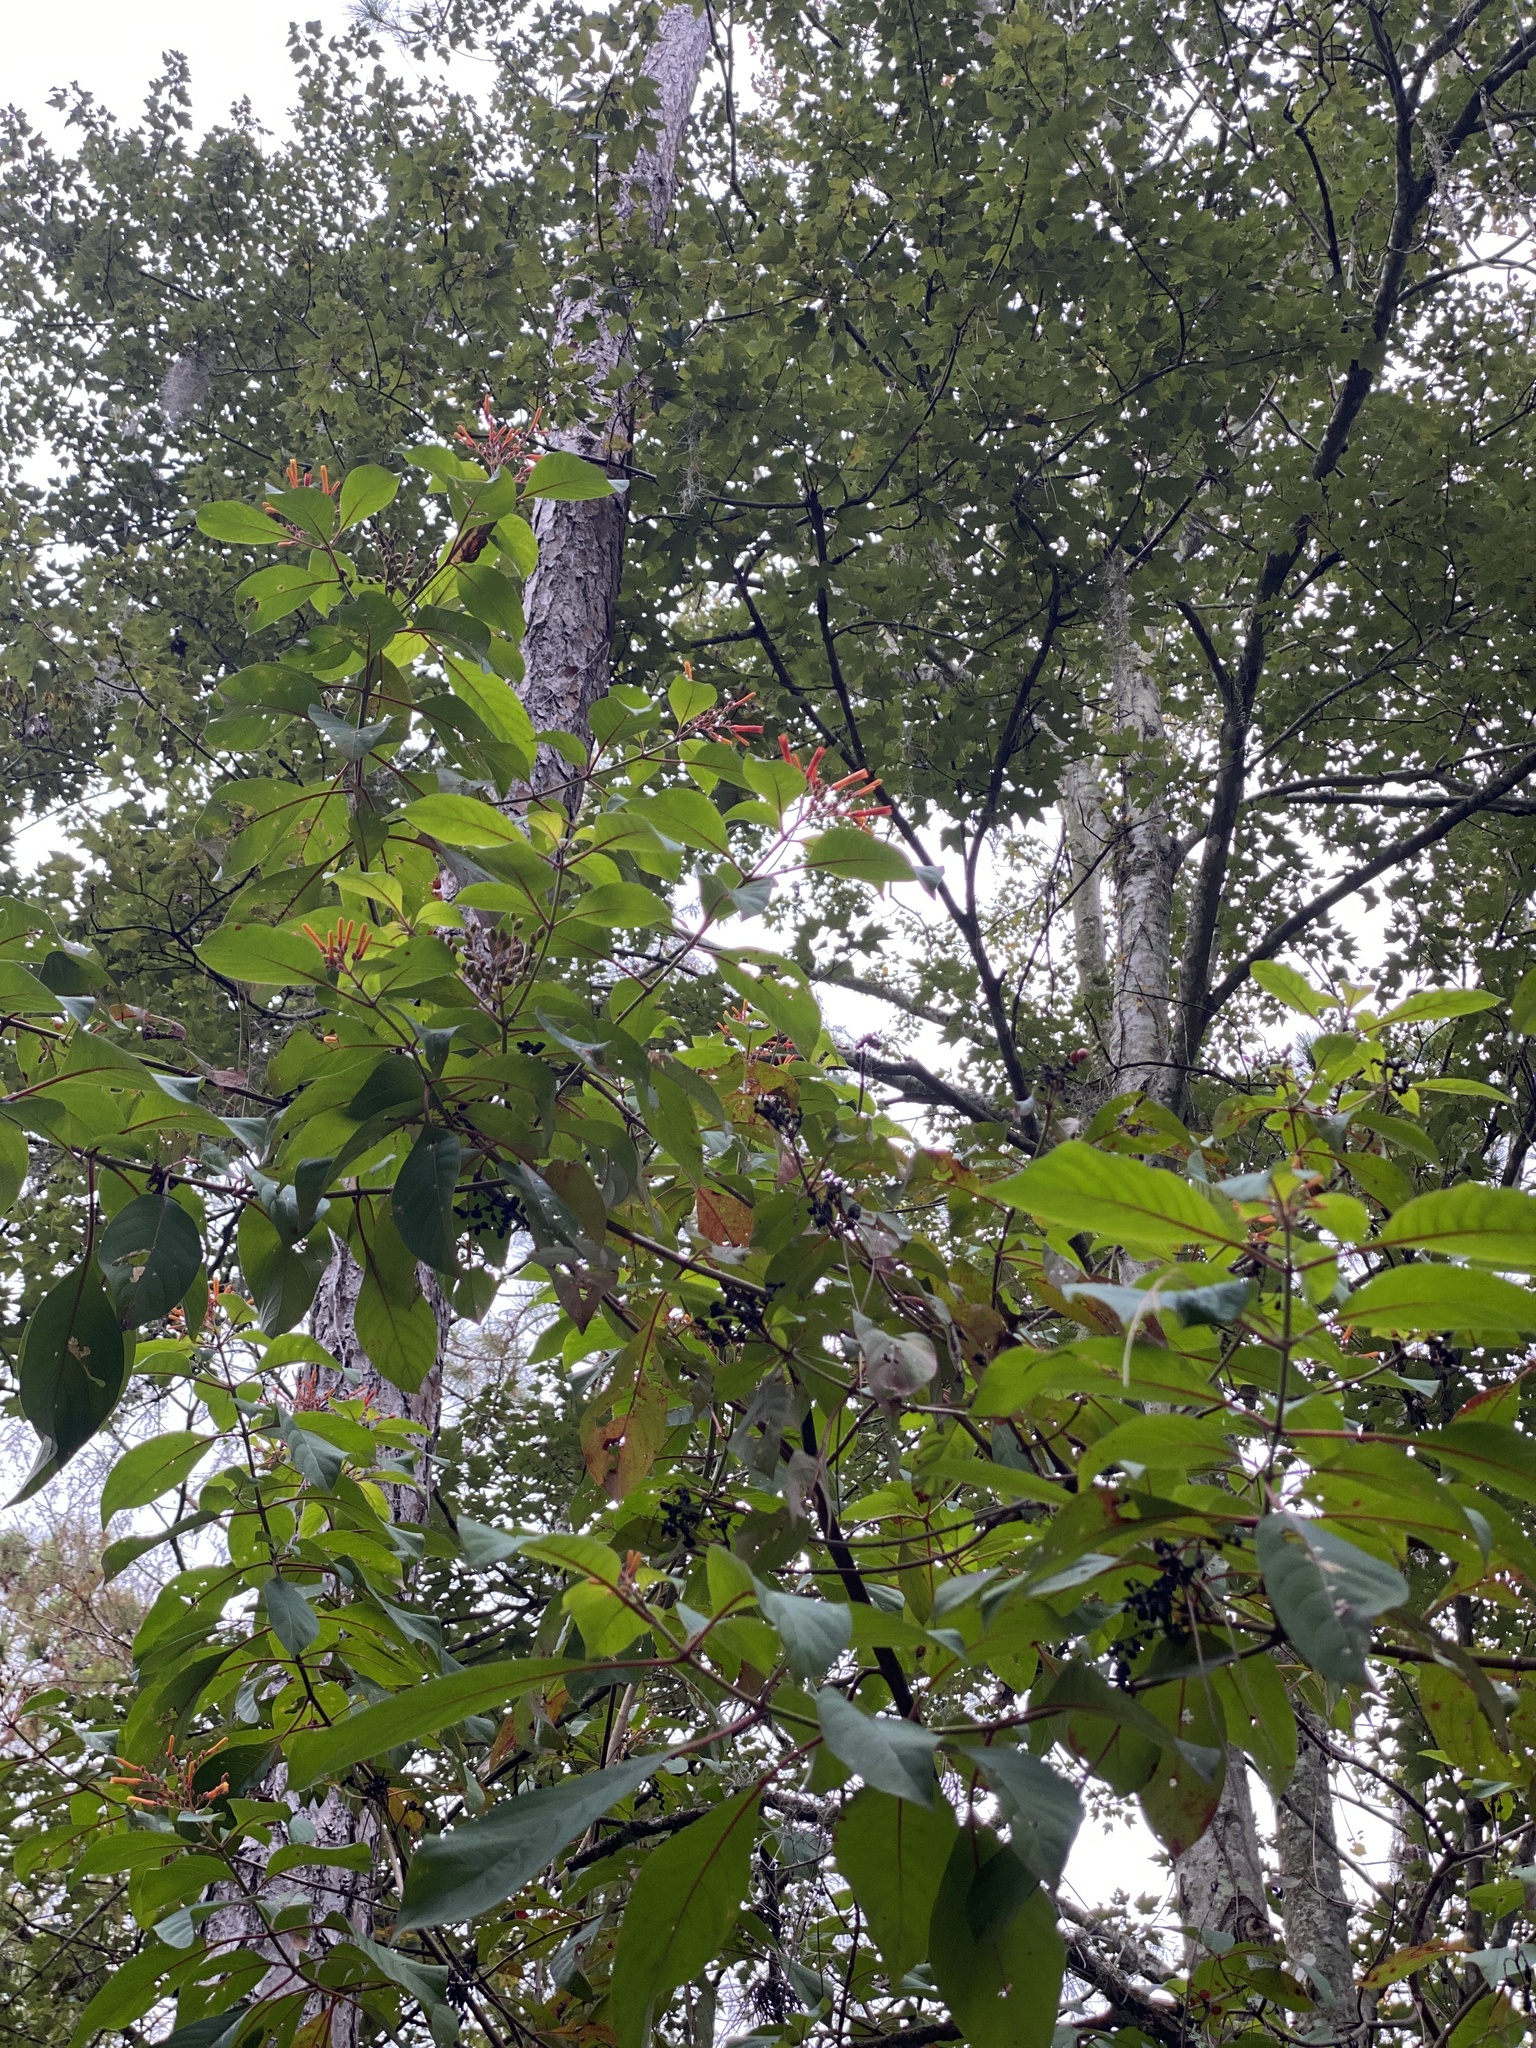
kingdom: Plantae
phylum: Tracheophyta
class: Magnoliopsida
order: Gentianales
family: Rubiaceae
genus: Hamelia
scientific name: Hamelia patens
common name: Redhead
